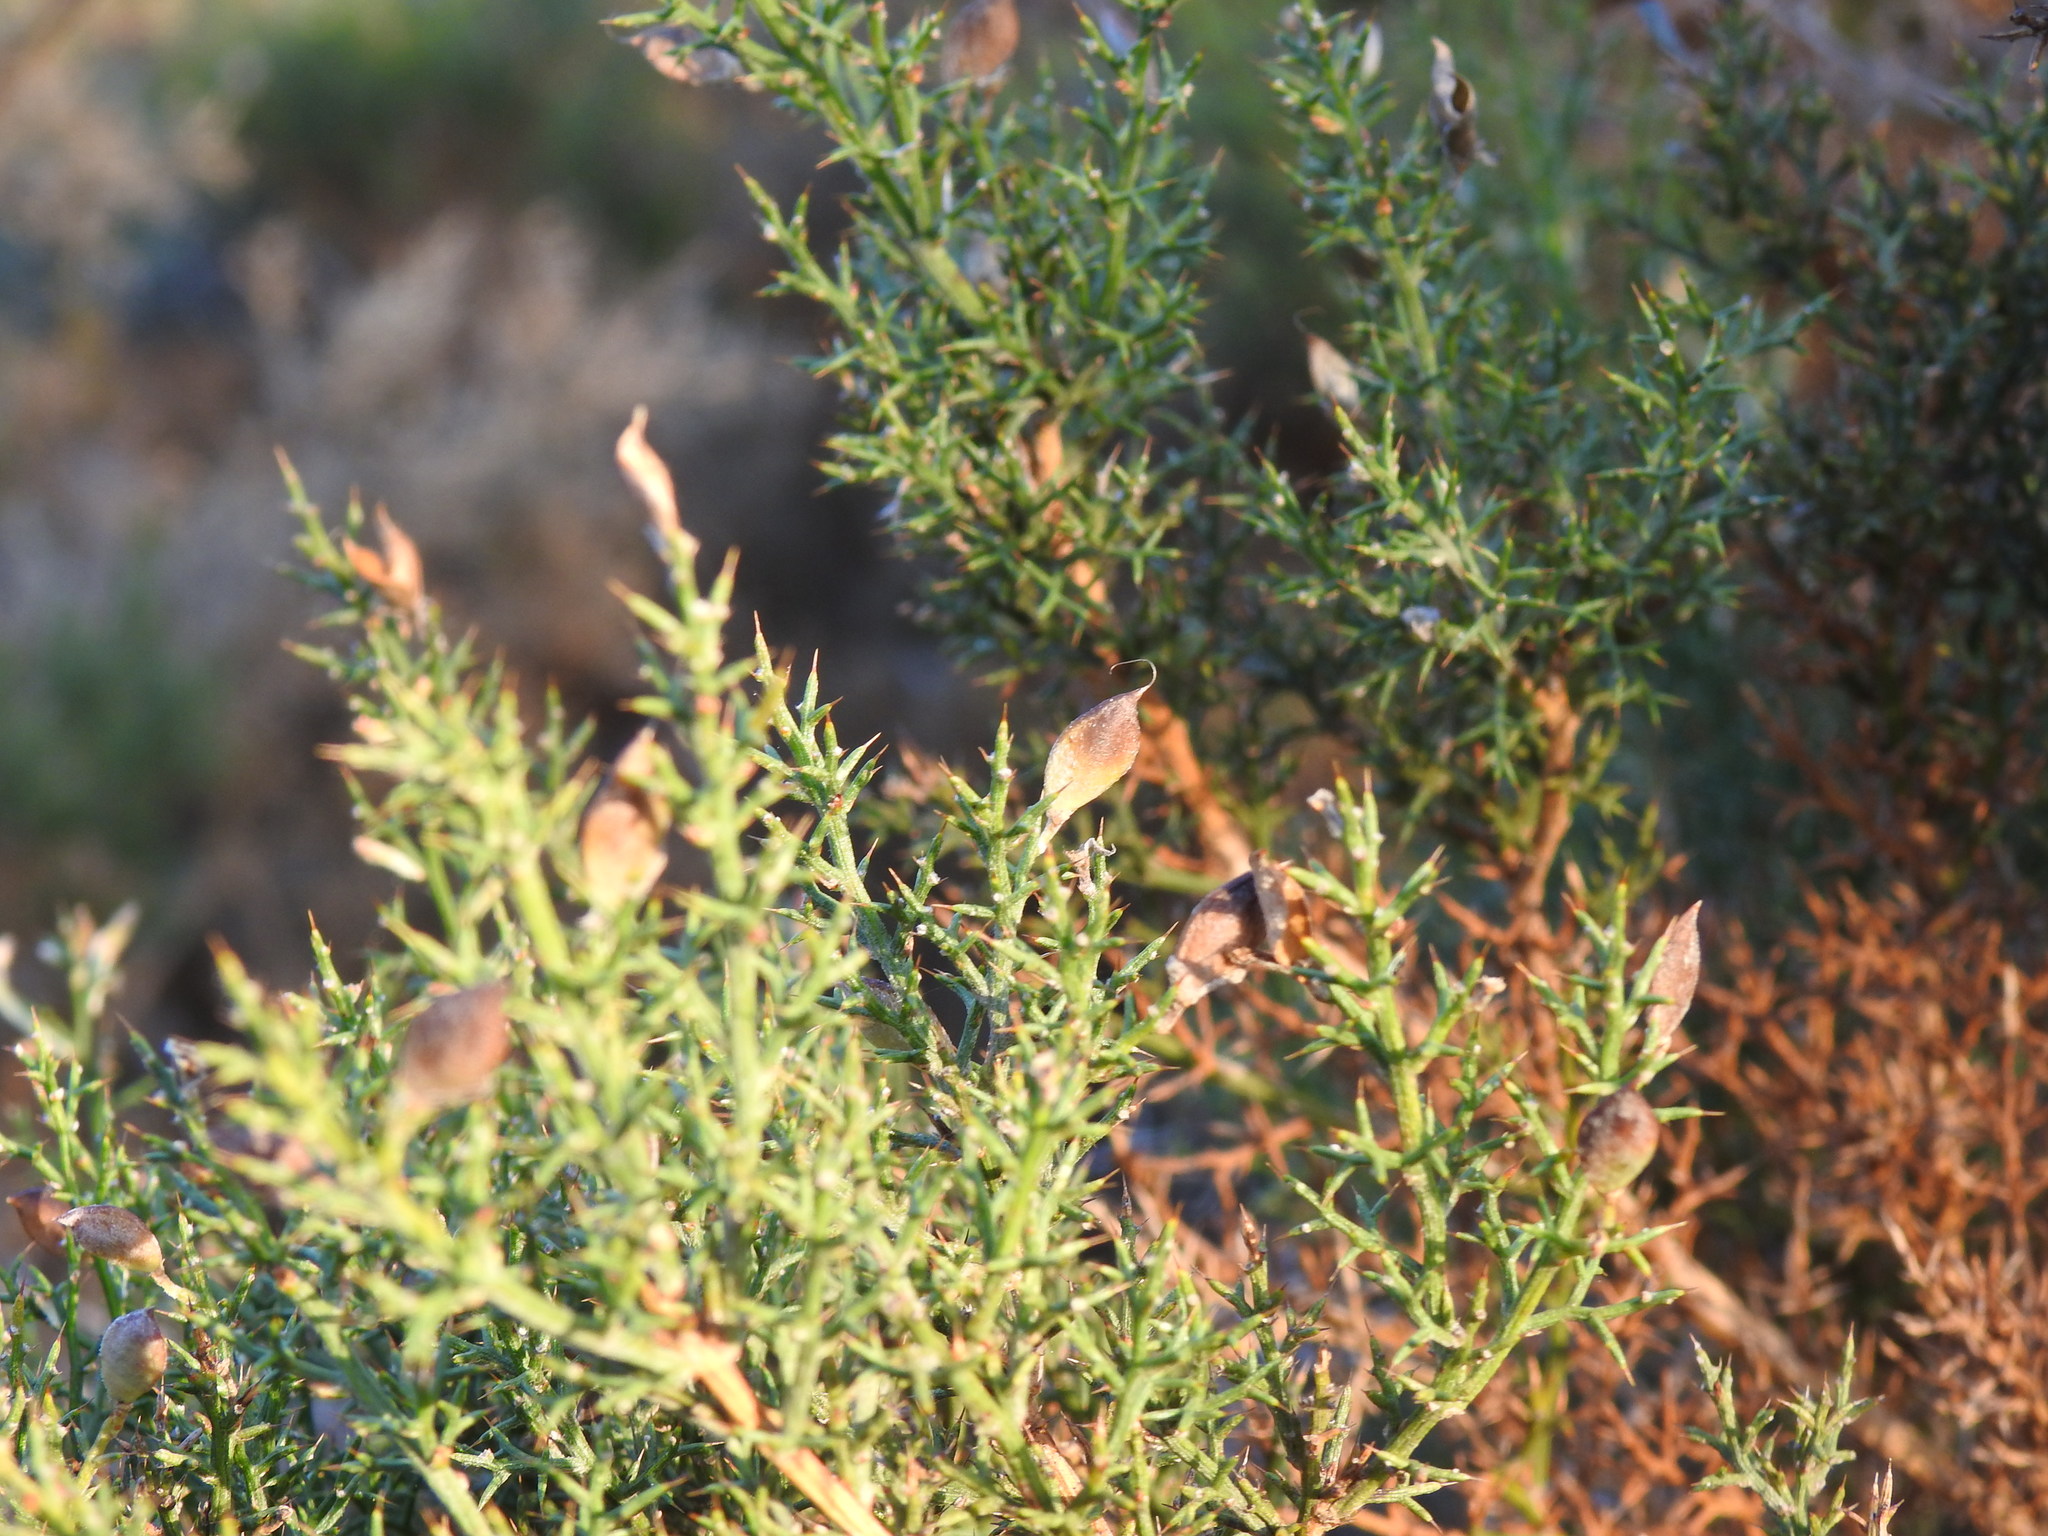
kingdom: Plantae
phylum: Tracheophyta
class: Magnoliopsida
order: Fabales
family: Fabaceae
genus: Stauracanthus
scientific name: Stauracanthus boivinii
